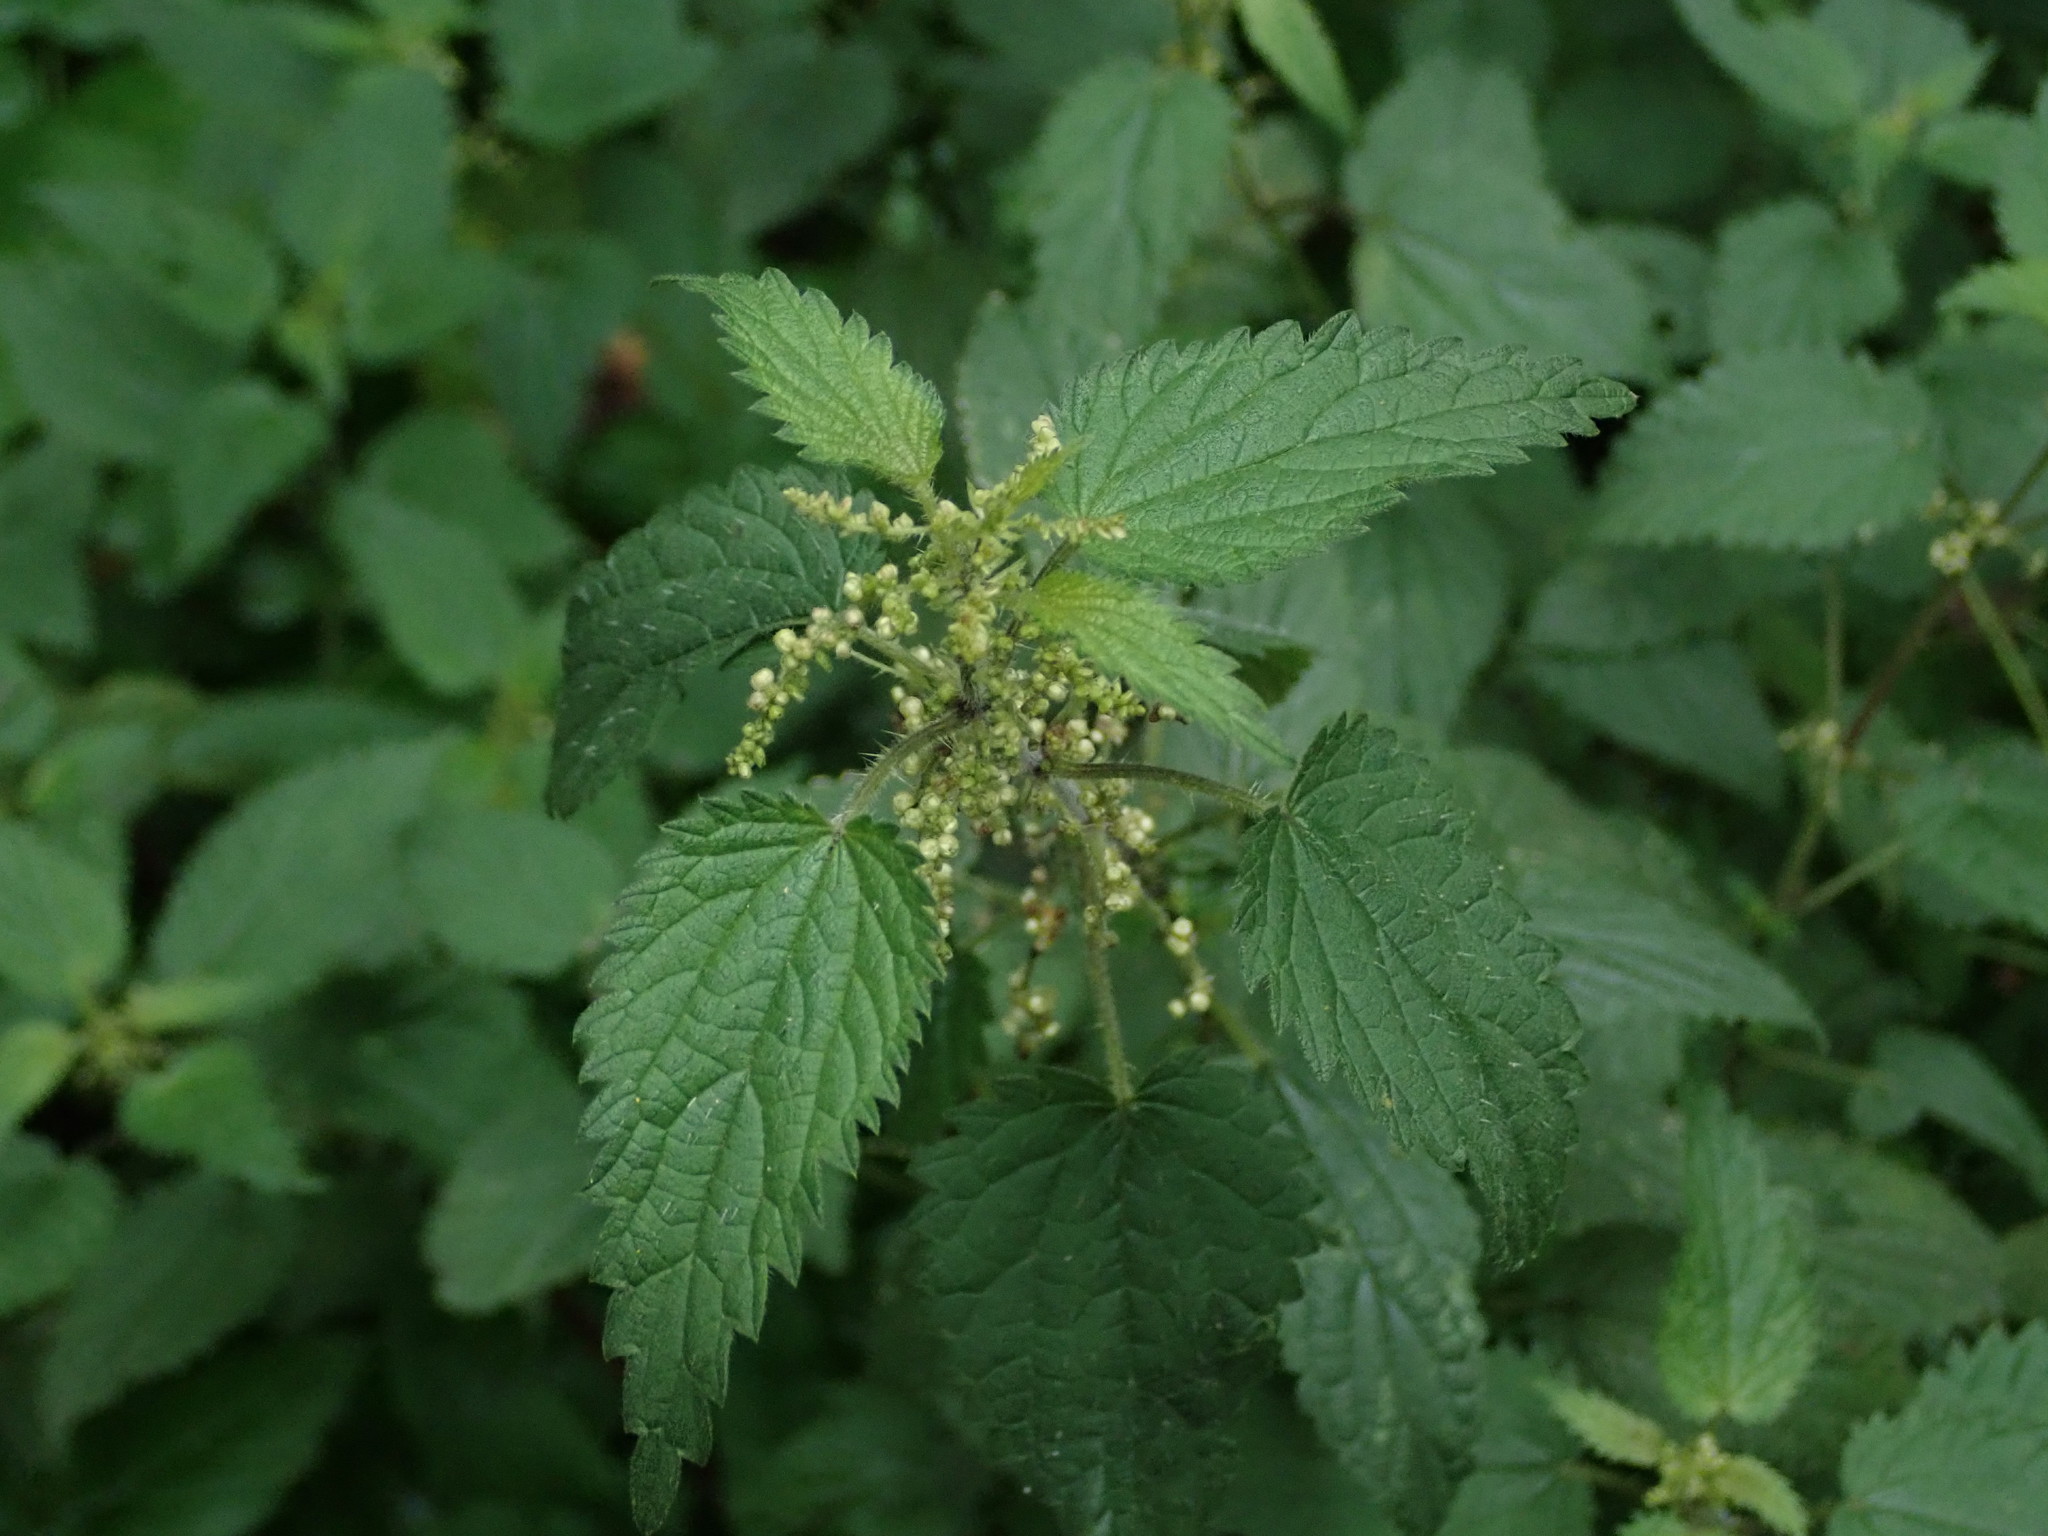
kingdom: Plantae
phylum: Tracheophyta
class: Magnoliopsida
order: Rosales
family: Urticaceae
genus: Urtica
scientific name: Urtica dioica
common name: Common nettle
